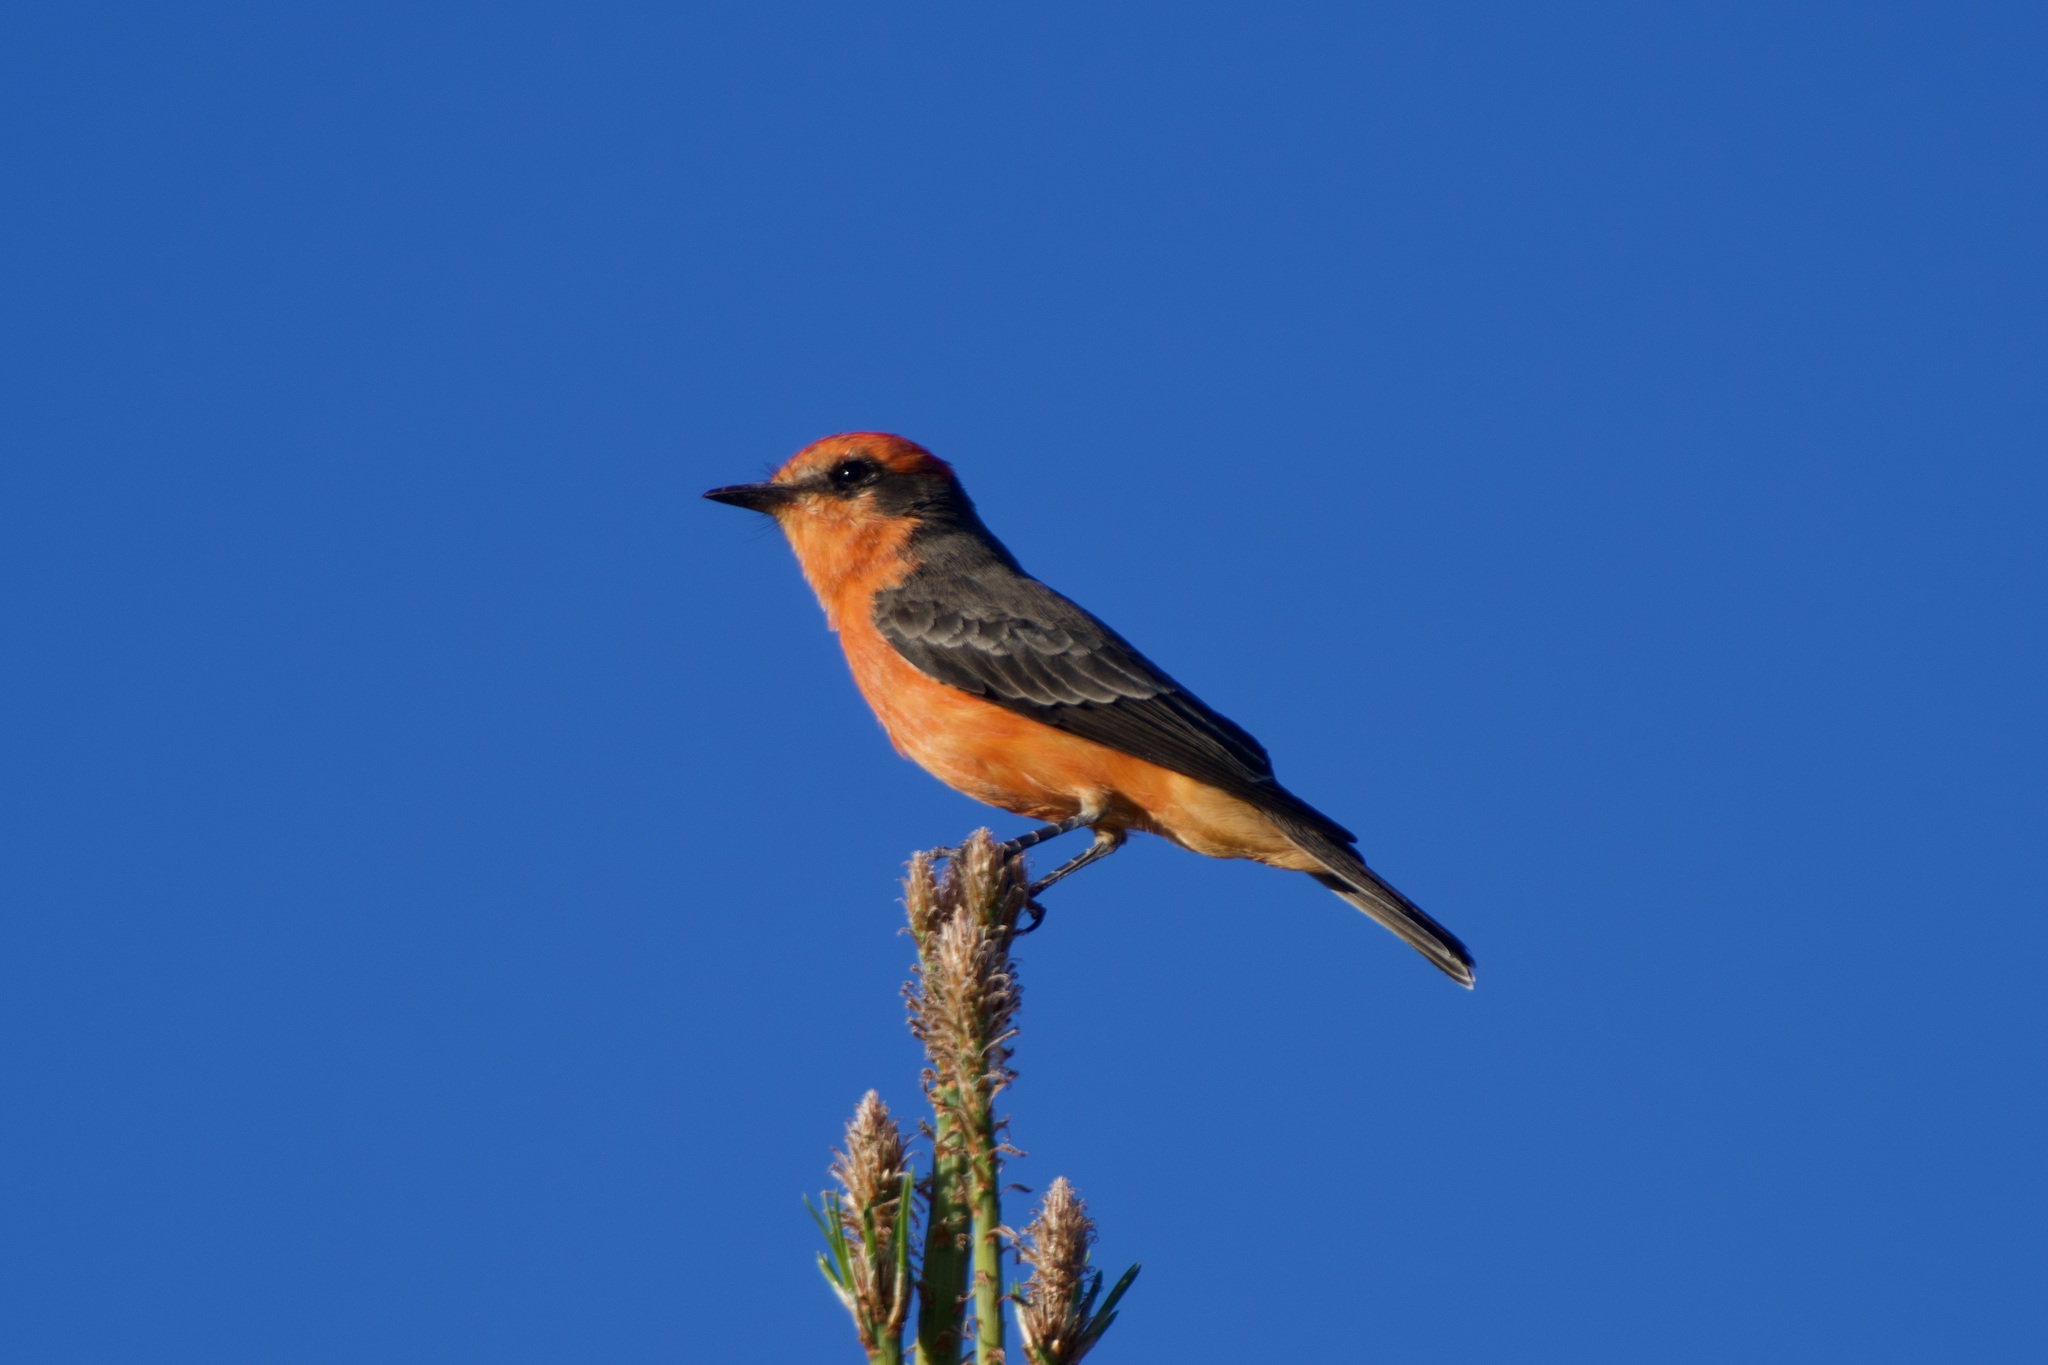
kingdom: Animalia
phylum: Chordata
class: Aves
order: Passeriformes
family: Tyrannidae
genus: Pyrocephalus
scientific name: Pyrocephalus rubinus
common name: Vermilion flycatcher
